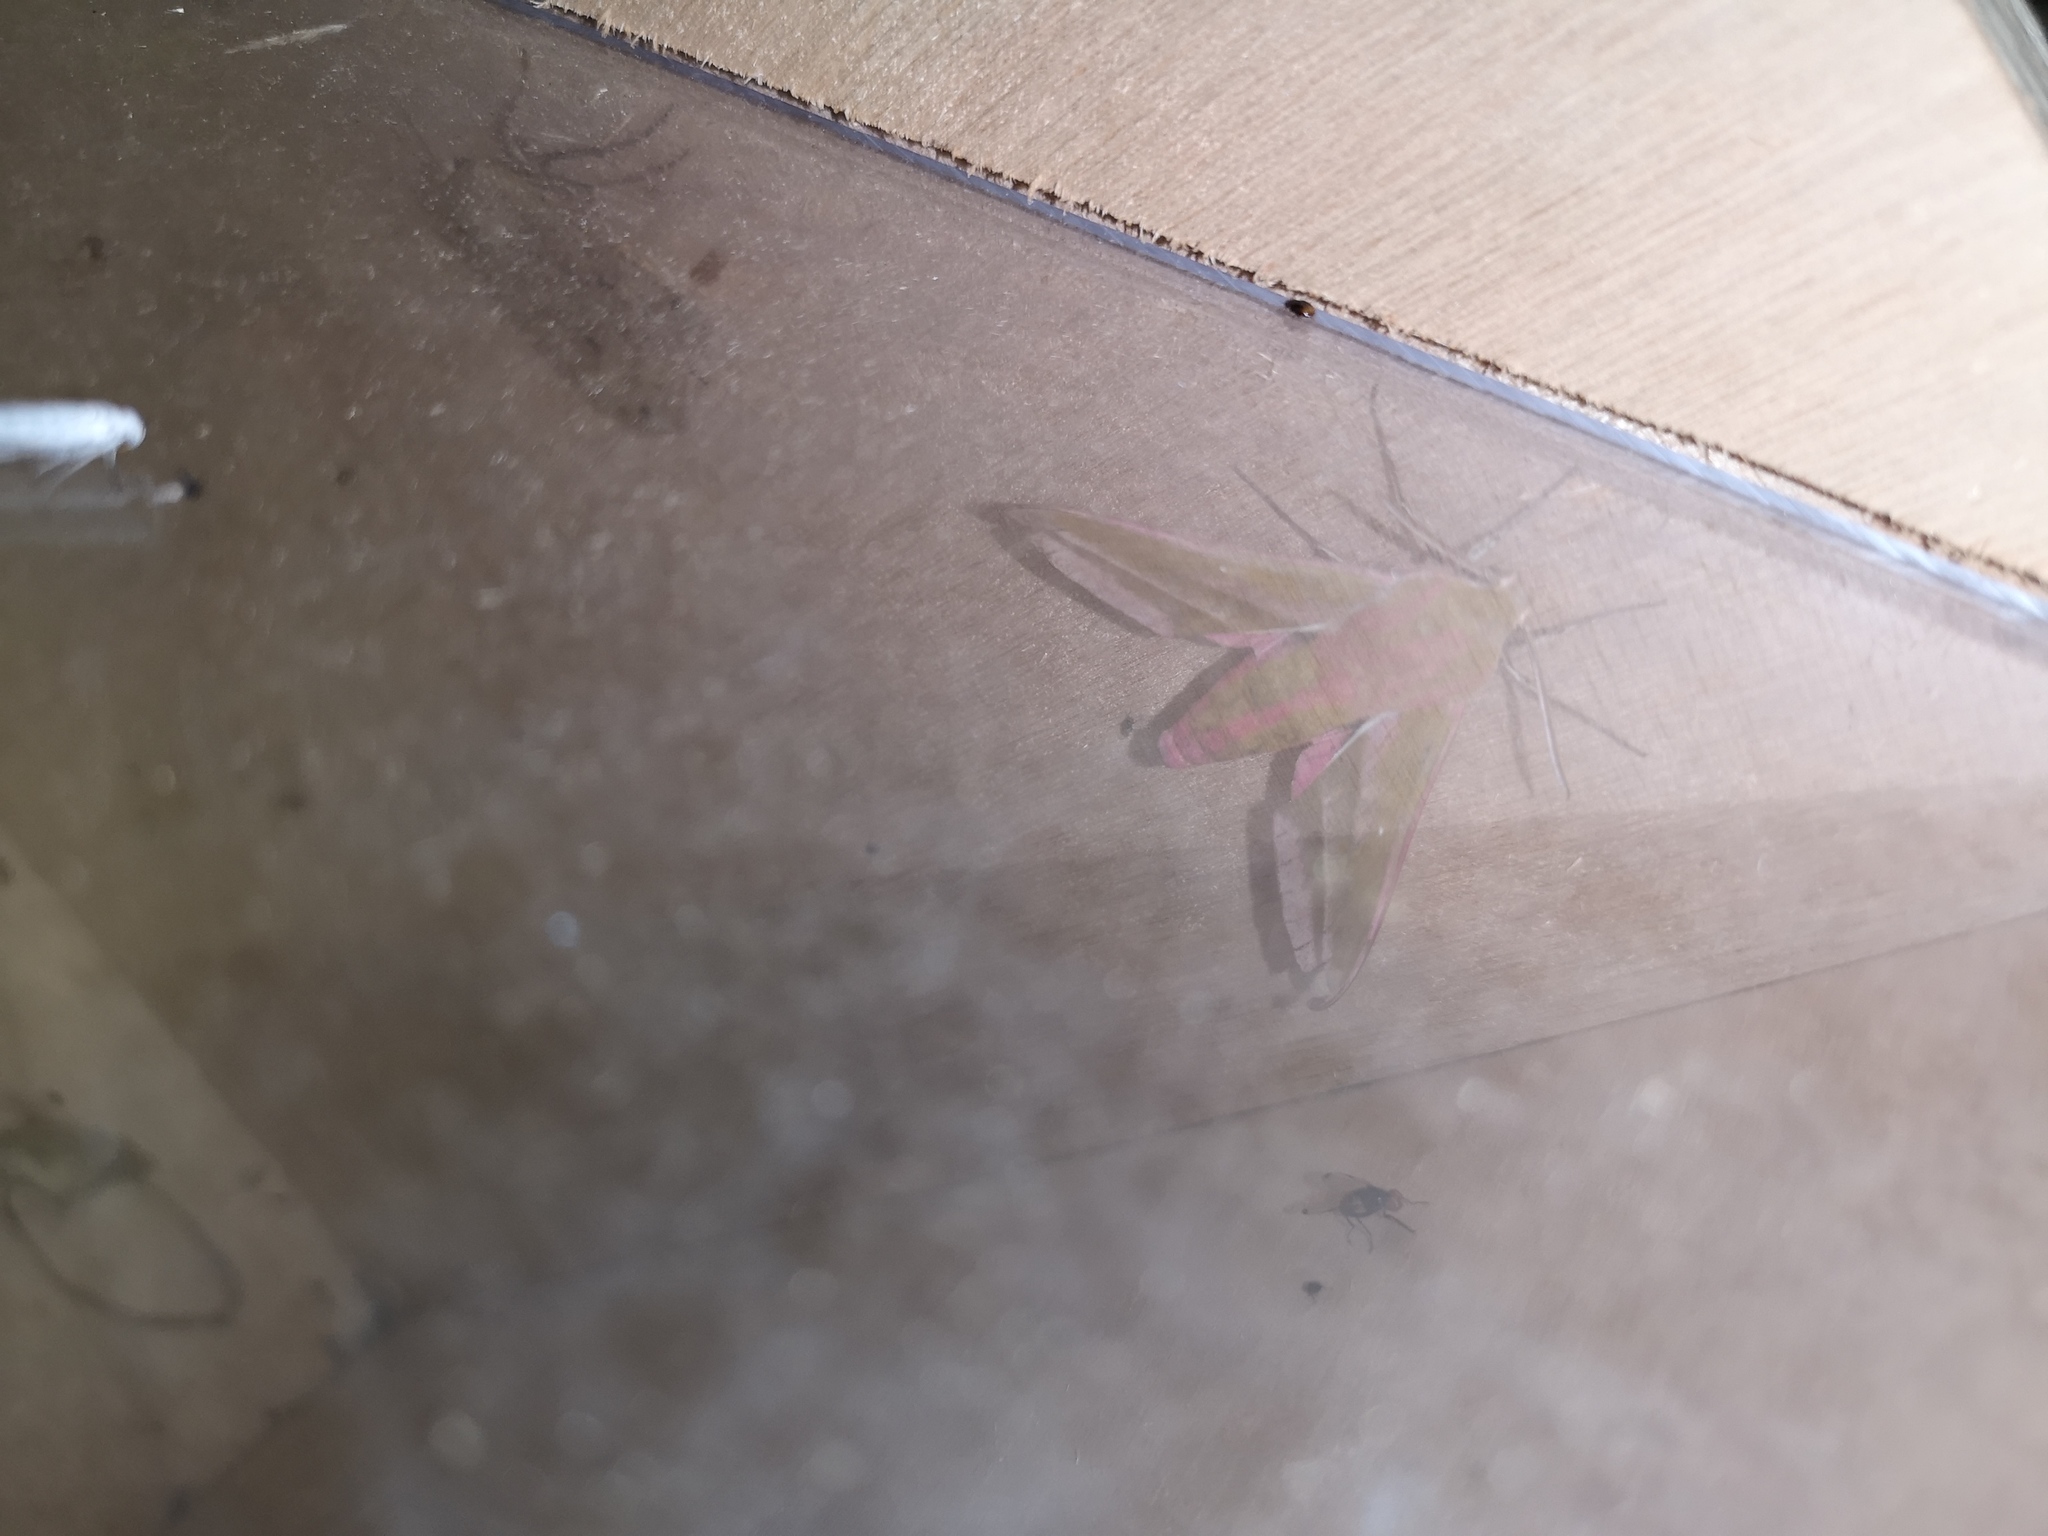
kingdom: Animalia
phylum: Arthropoda
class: Insecta
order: Lepidoptera
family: Sphingidae
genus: Deilephila
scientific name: Deilephila elpenor
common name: Elephant hawk-moth
